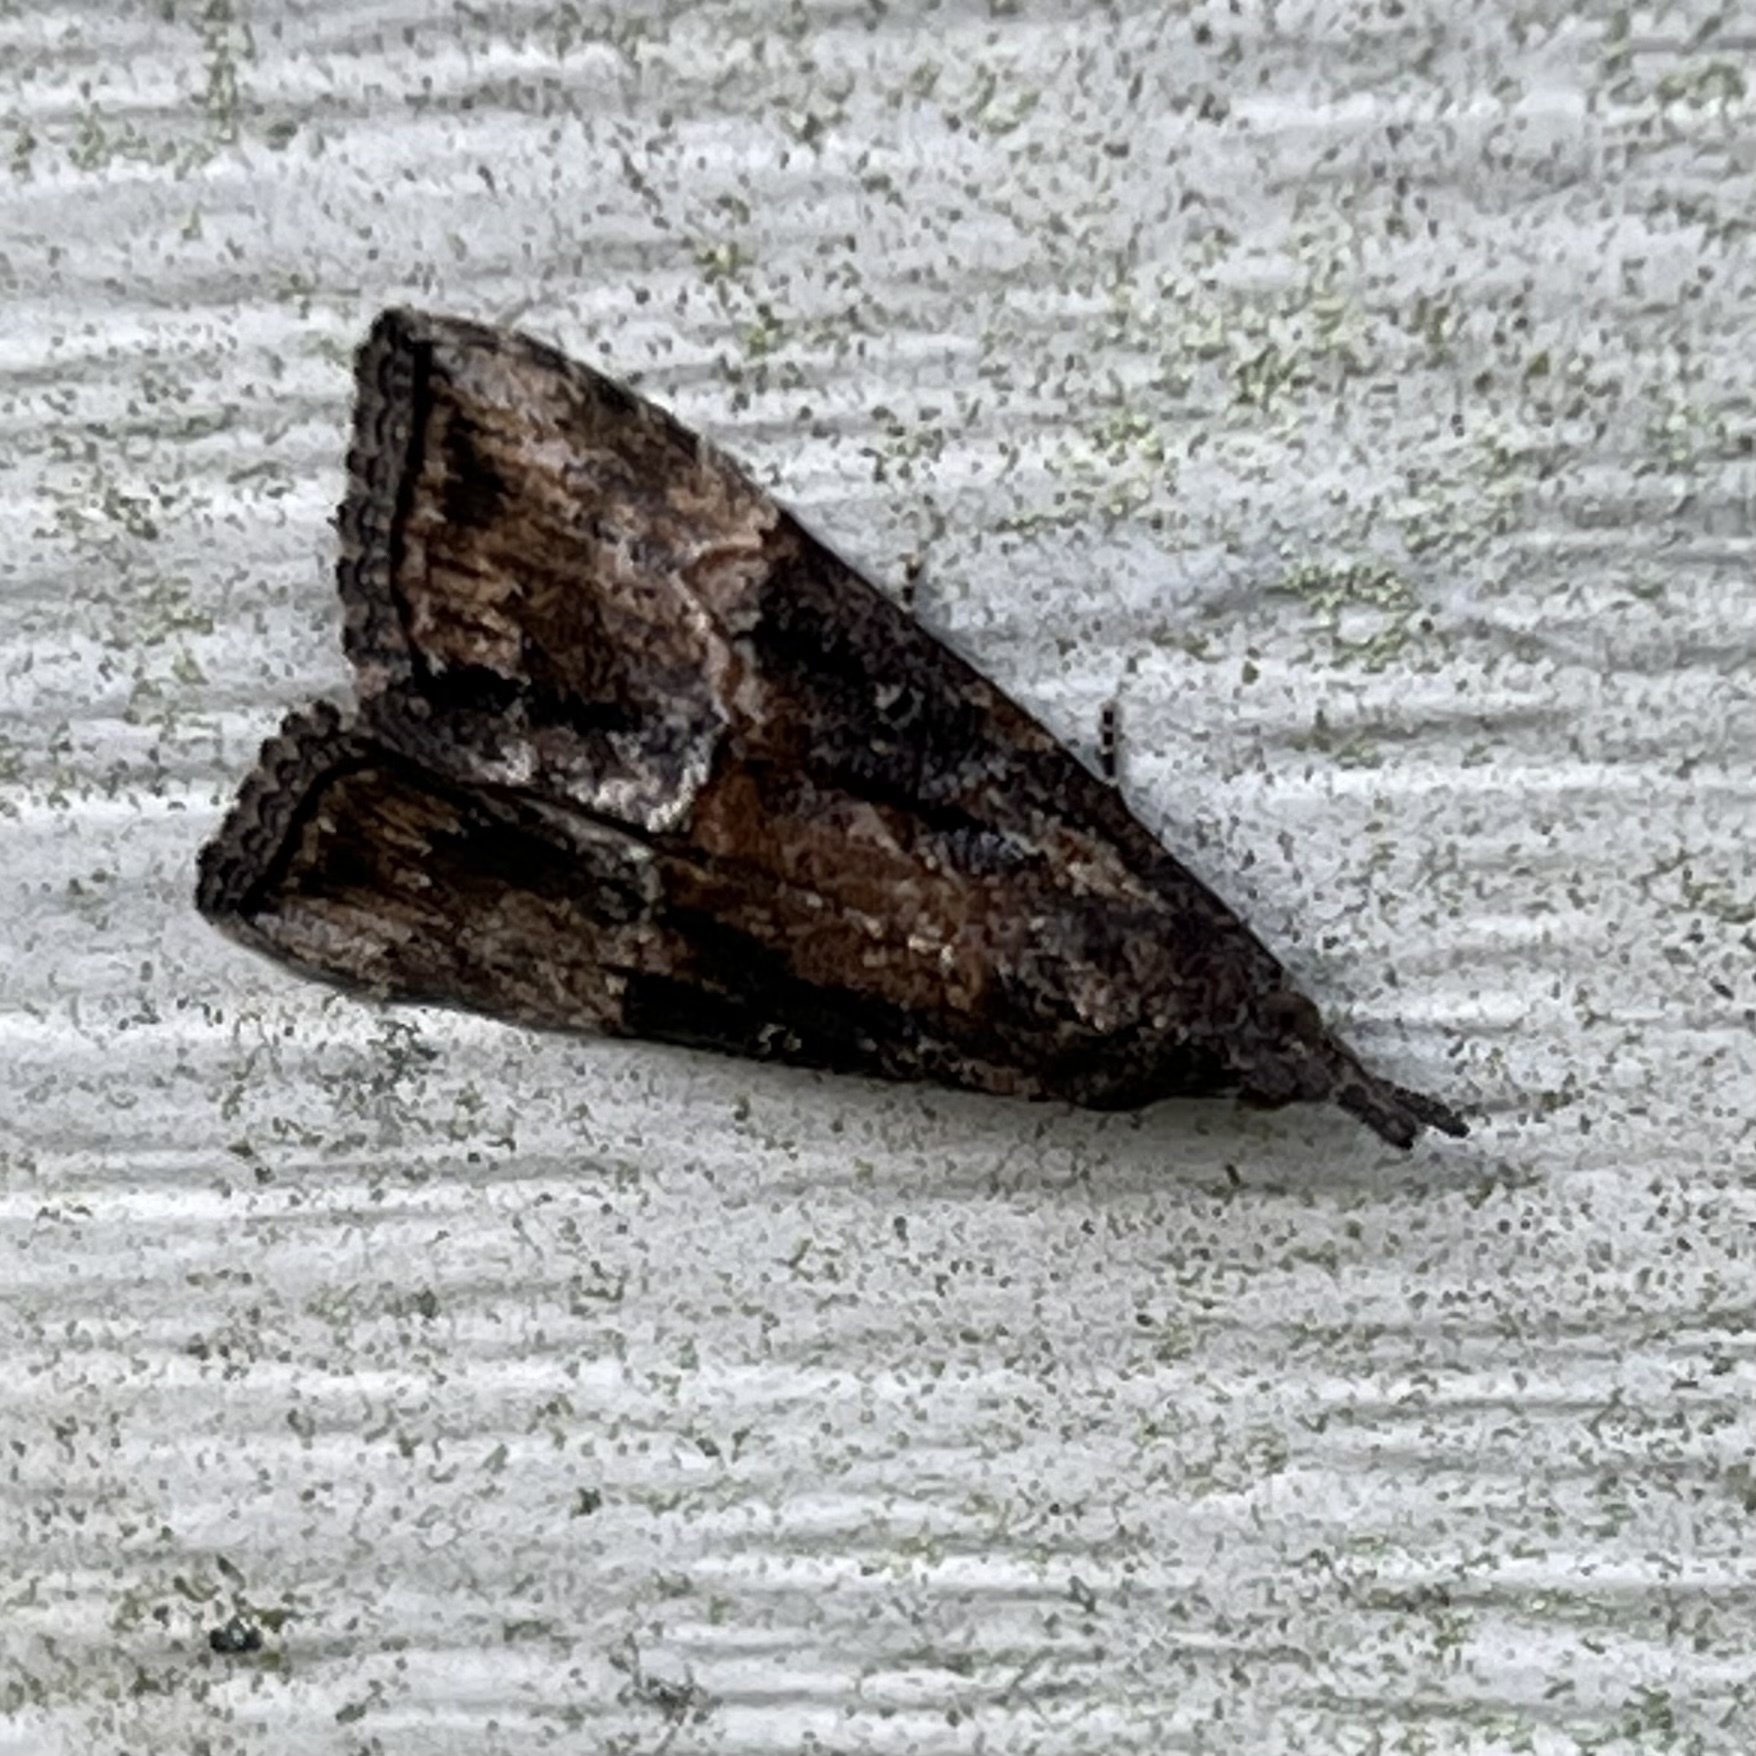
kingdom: Animalia
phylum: Arthropoda
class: Insecta
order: Lepidoptera
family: Erebidae
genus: Hypena
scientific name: Hypena scabra
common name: Green cloverworm
